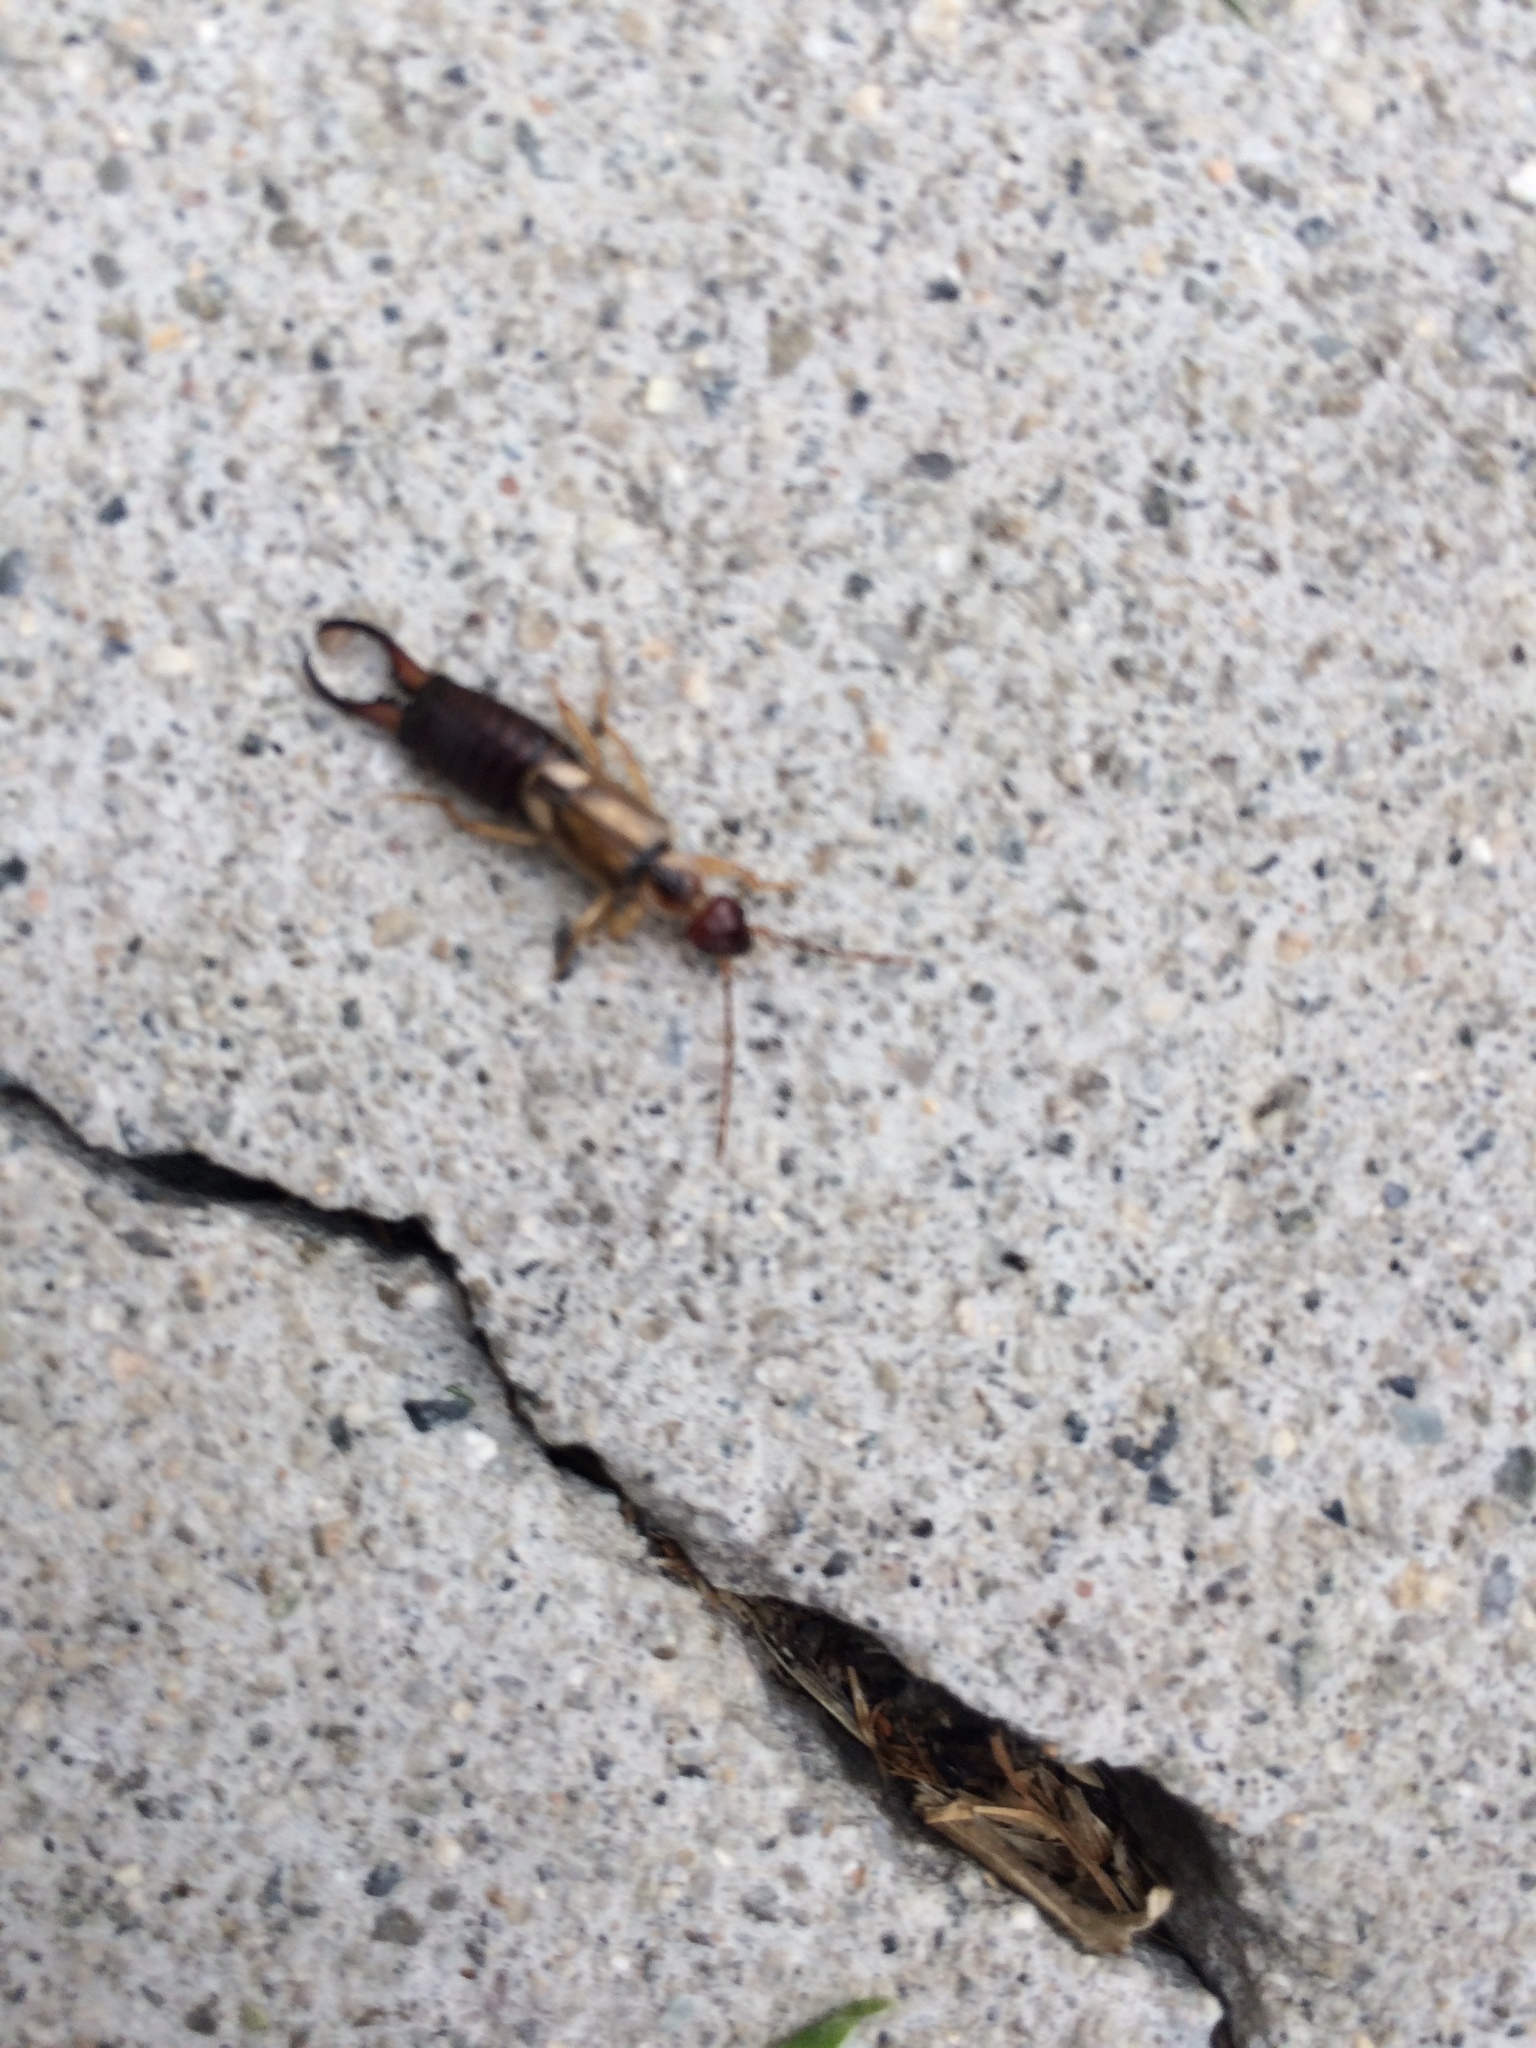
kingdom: Animalia
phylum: Arthropoda
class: Insecta
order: Dermaptera
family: Forficulidae
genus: Forficula
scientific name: Forficula
